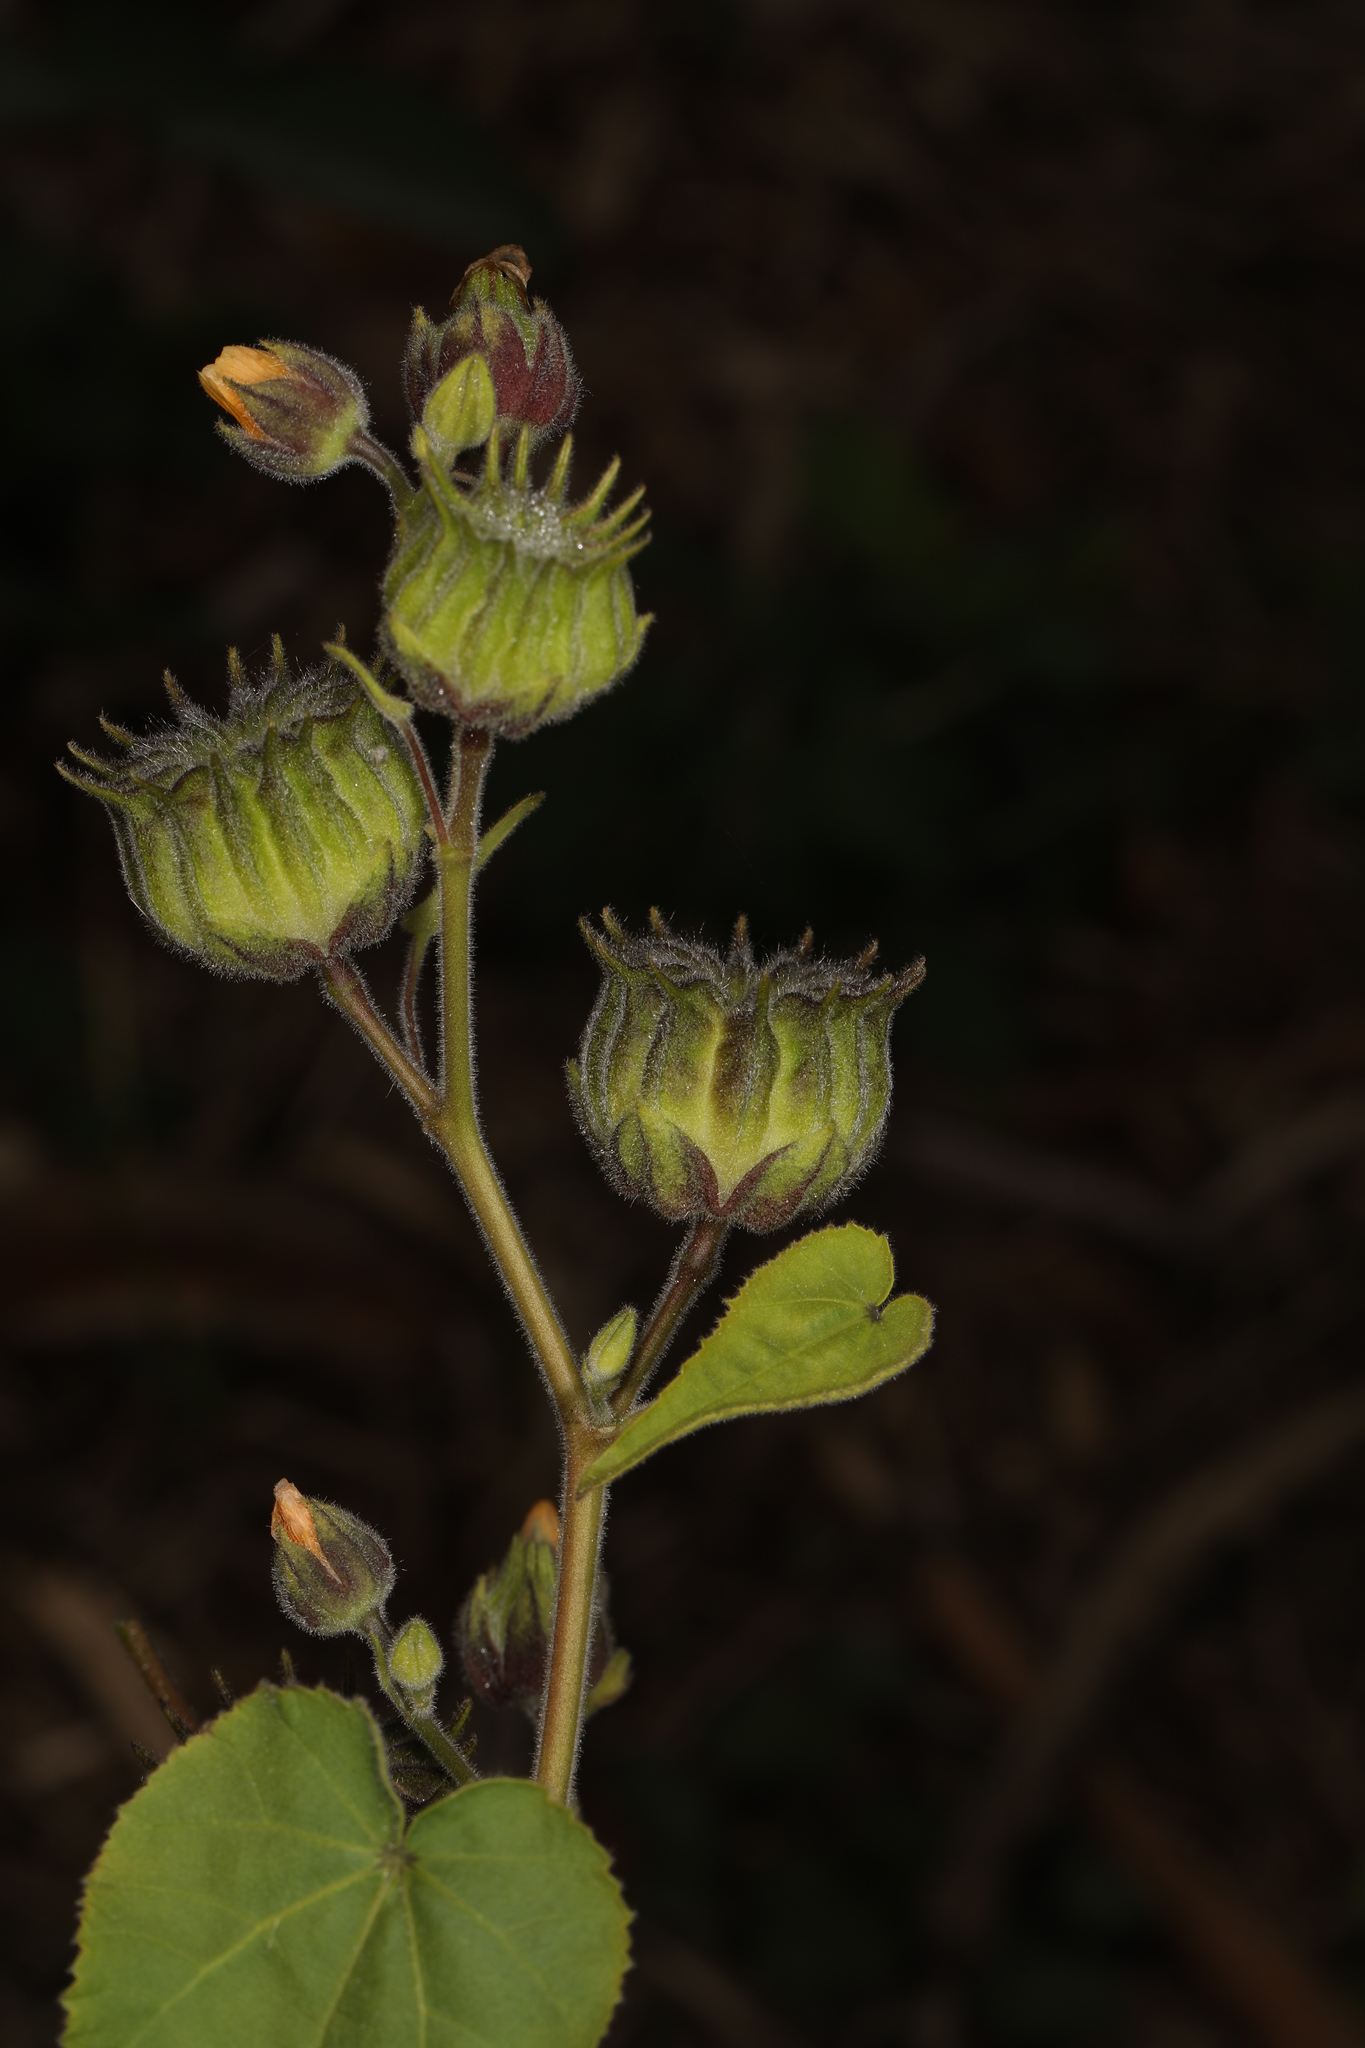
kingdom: Plantae
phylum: Tracheophyta
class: Magnoliopsida
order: Malvales
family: Malvaceae
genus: Abutilon
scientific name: Abutilon theophrasti
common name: Velvetleaf
